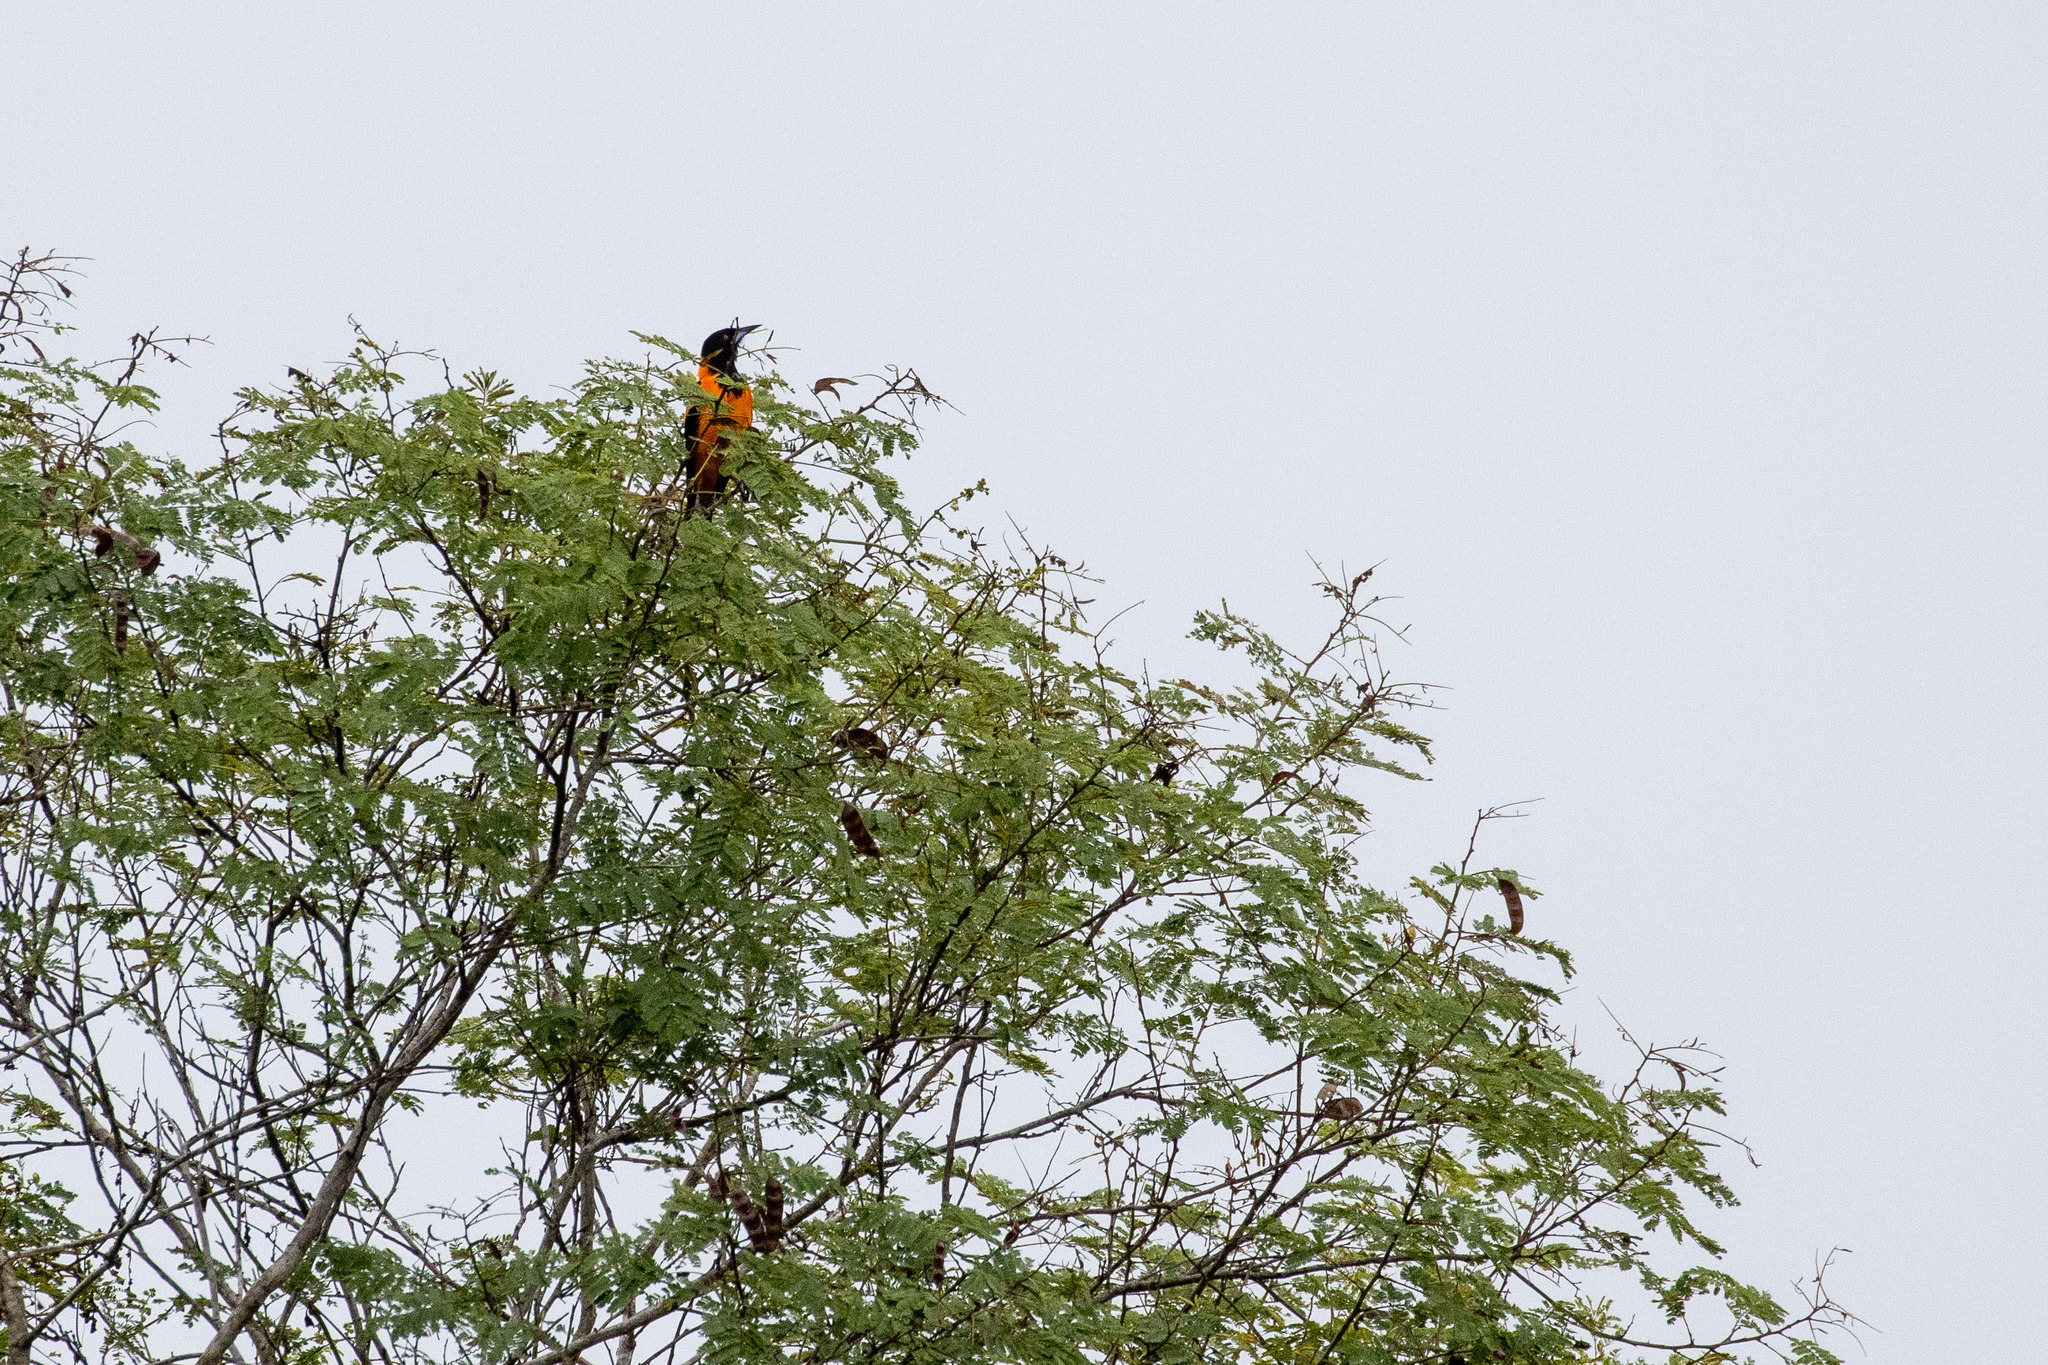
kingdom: Animalia
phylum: Chordata
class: Aves
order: Passeriformes
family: Icteridae
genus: Icterus
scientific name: Icterus icterus
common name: Venezuelan troupial
